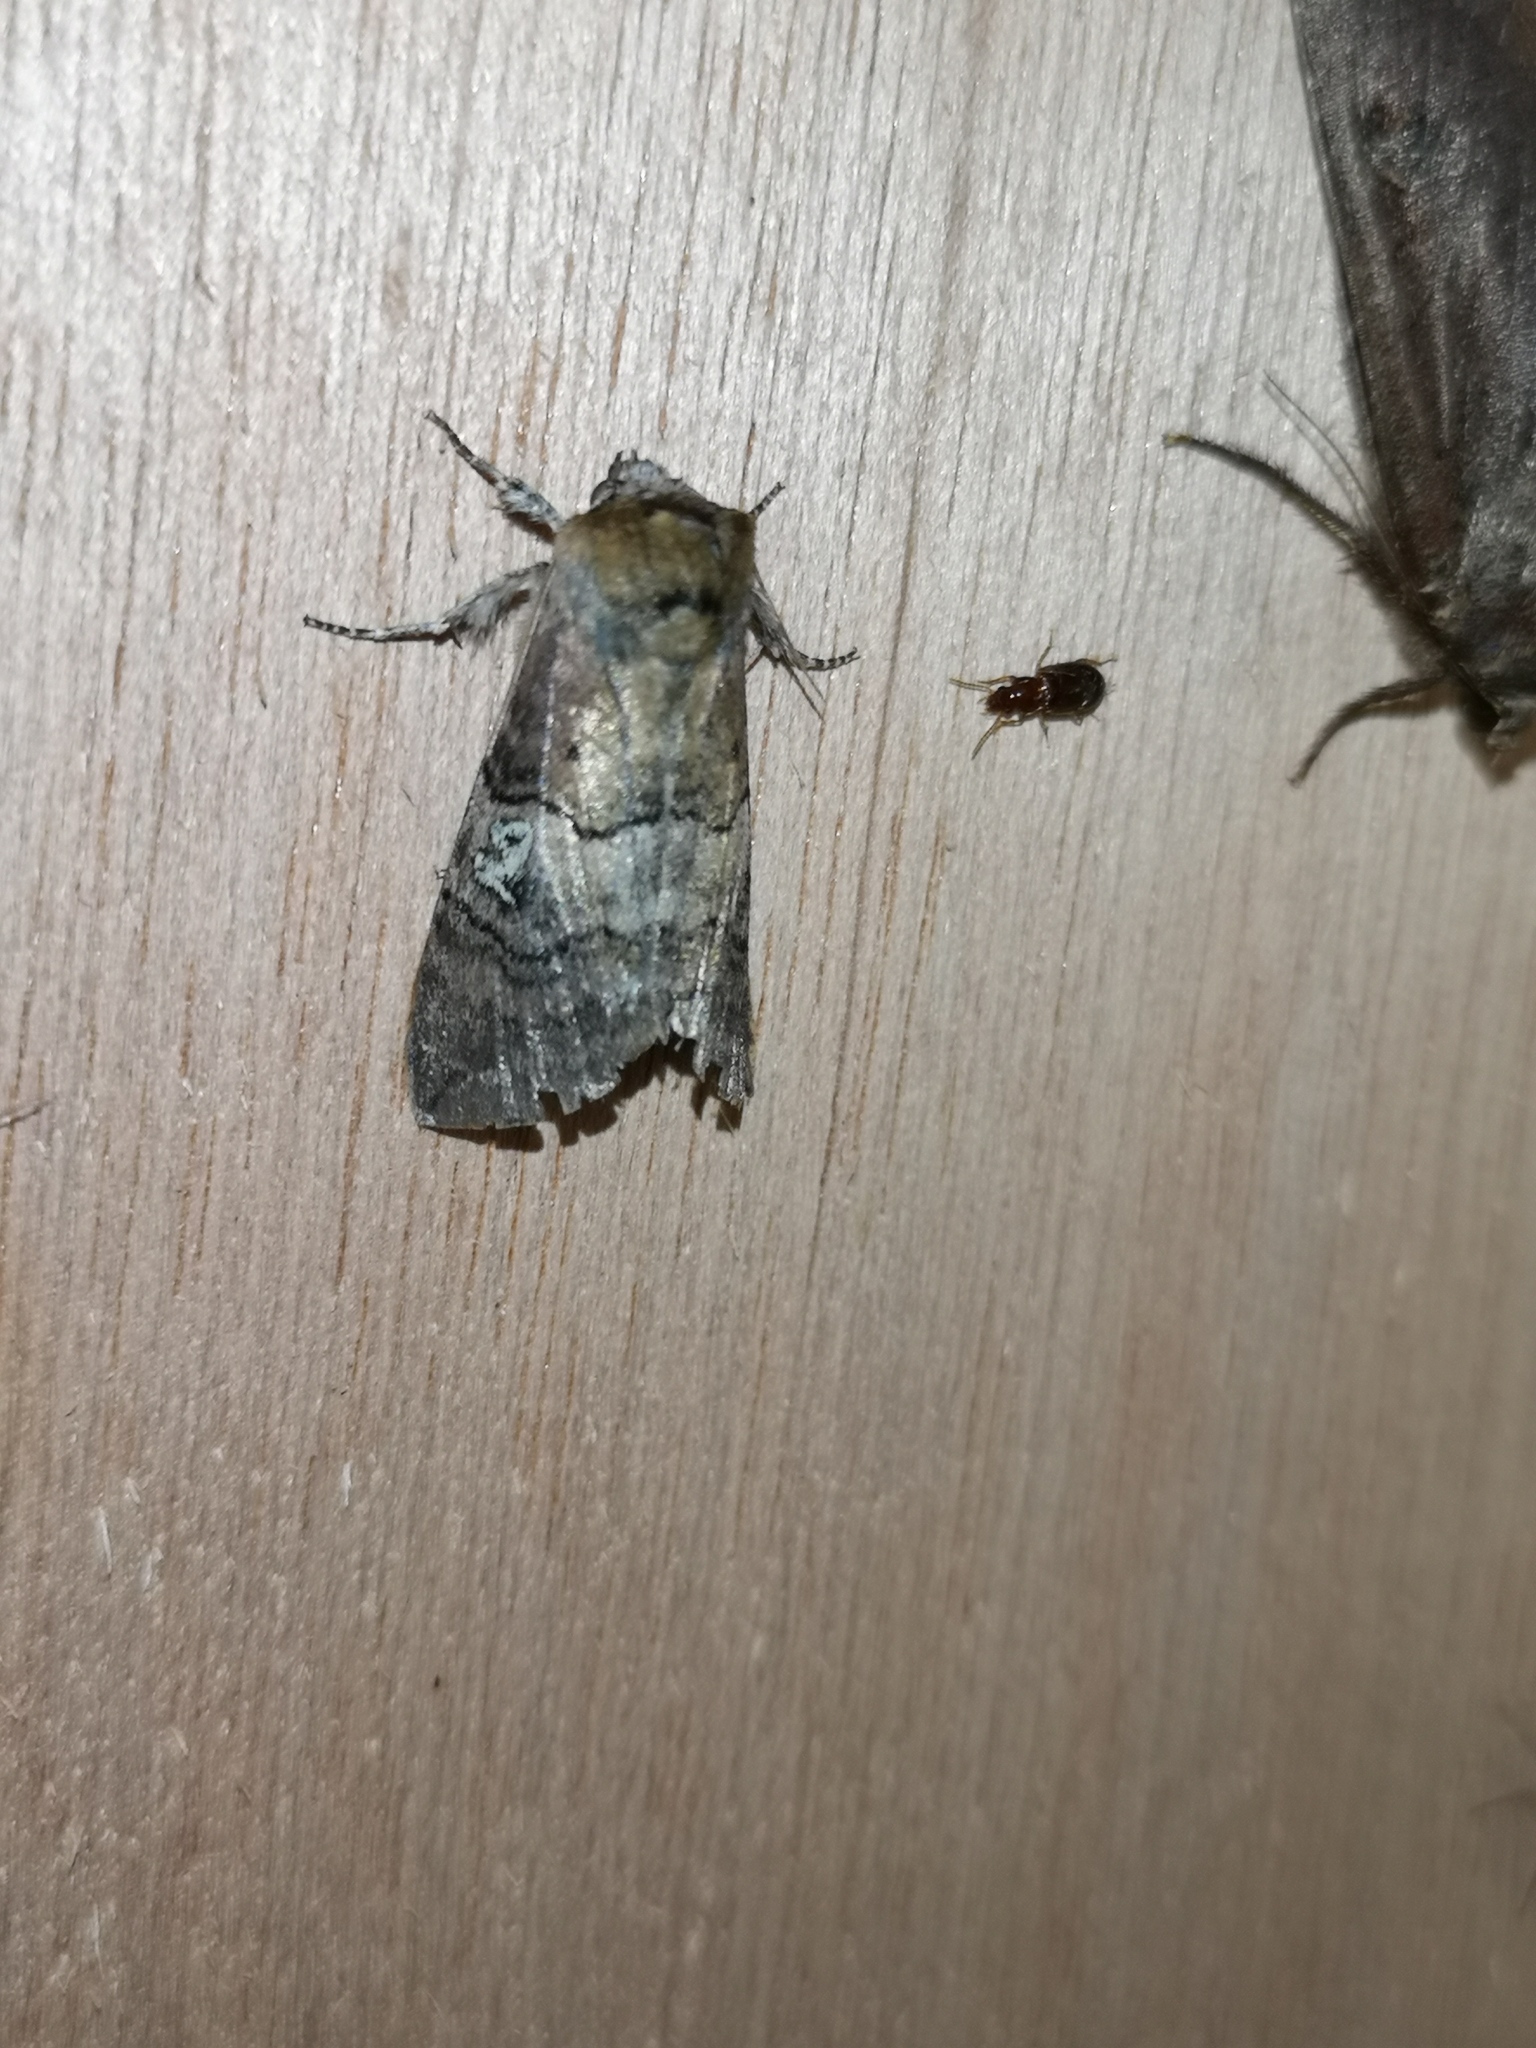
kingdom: Animalia
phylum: Arthropoda
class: Insecta
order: Lepidoptera
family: Drepanidae
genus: Tethea
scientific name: Tethea ocularis
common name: Figure of eighty
